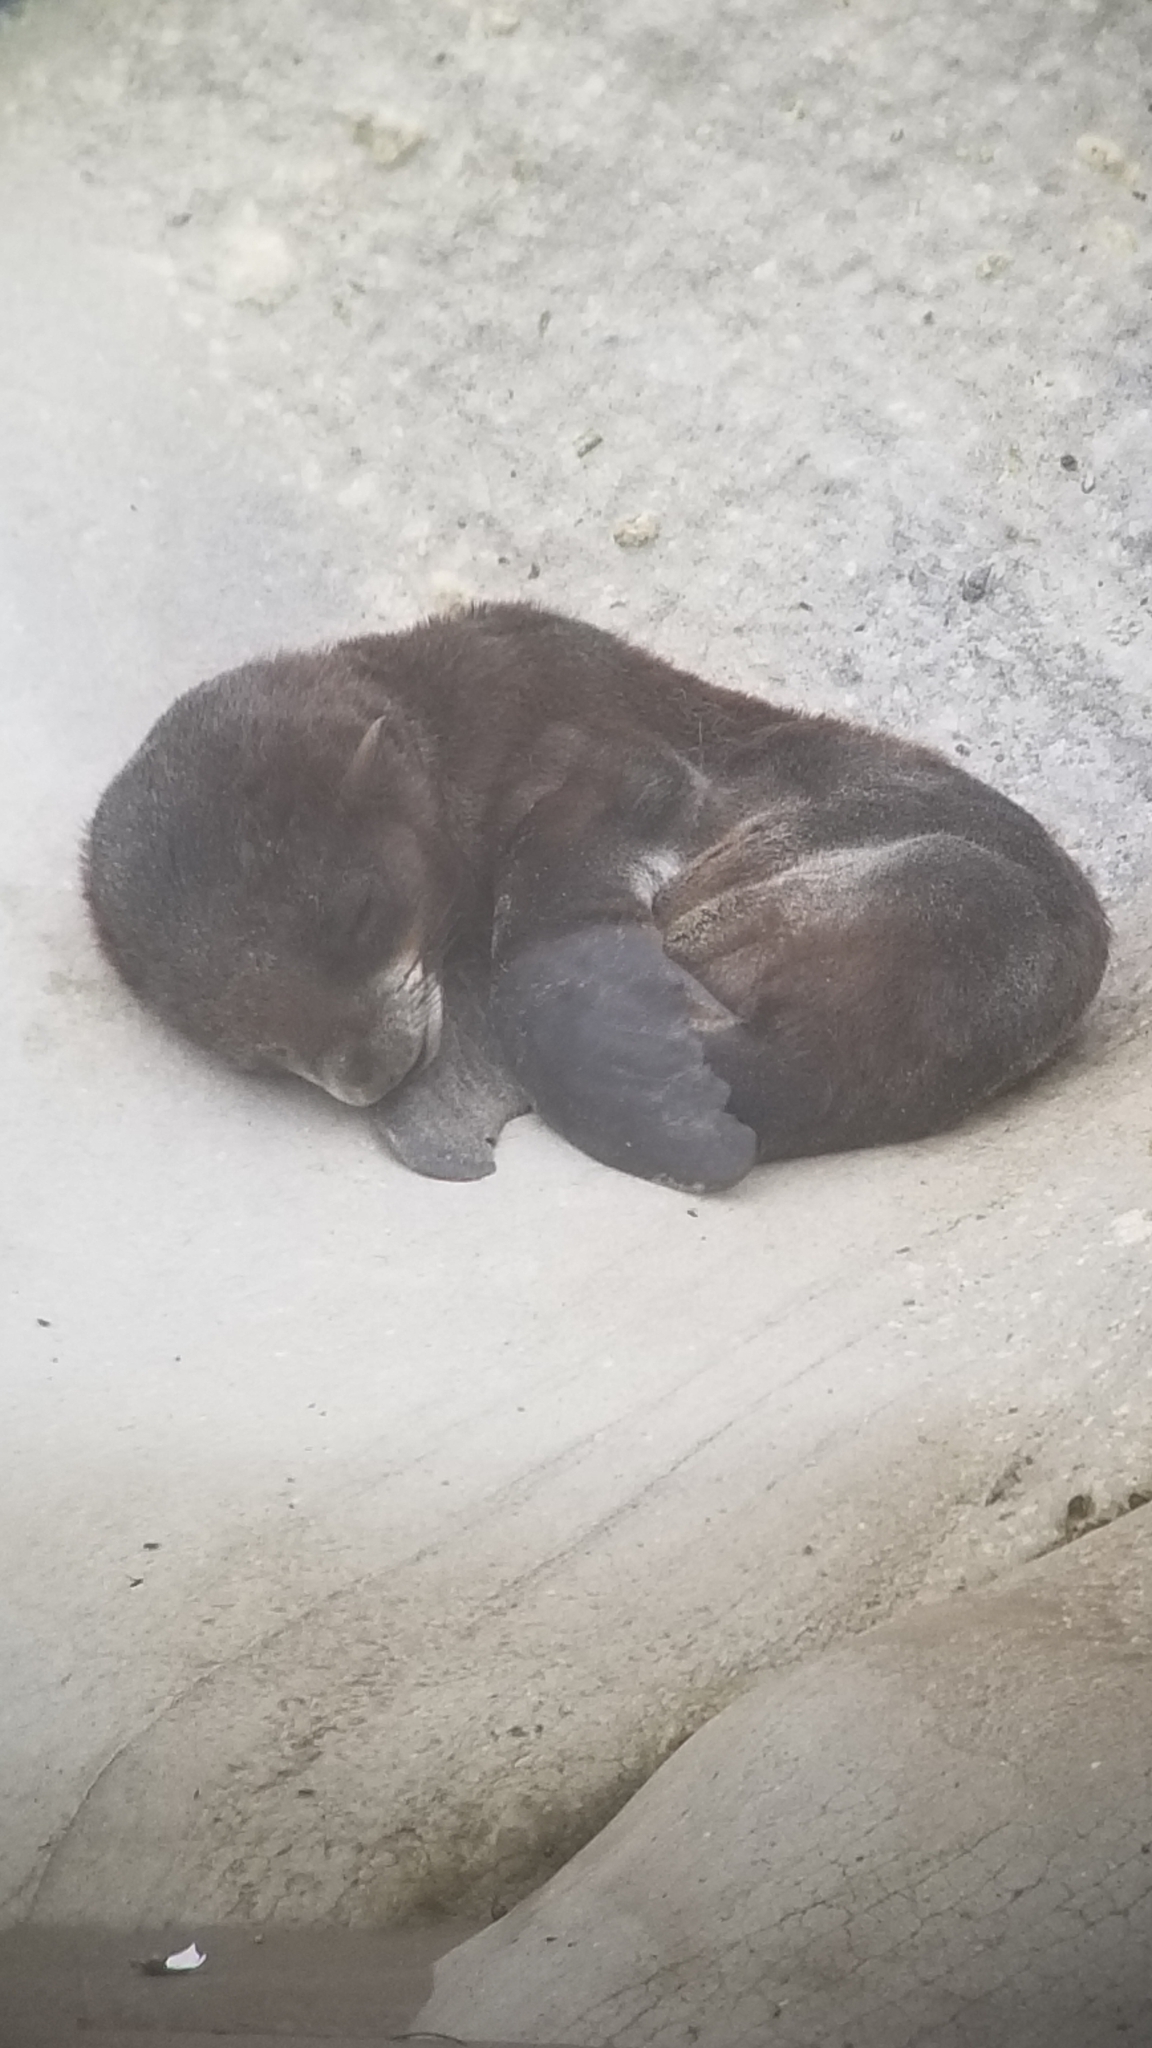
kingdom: Animalia
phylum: Chordata
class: Mammalia
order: Carnivora
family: Otariidae
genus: Callorhinus
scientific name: Callorhinus ursinus
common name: Northern fur seal
